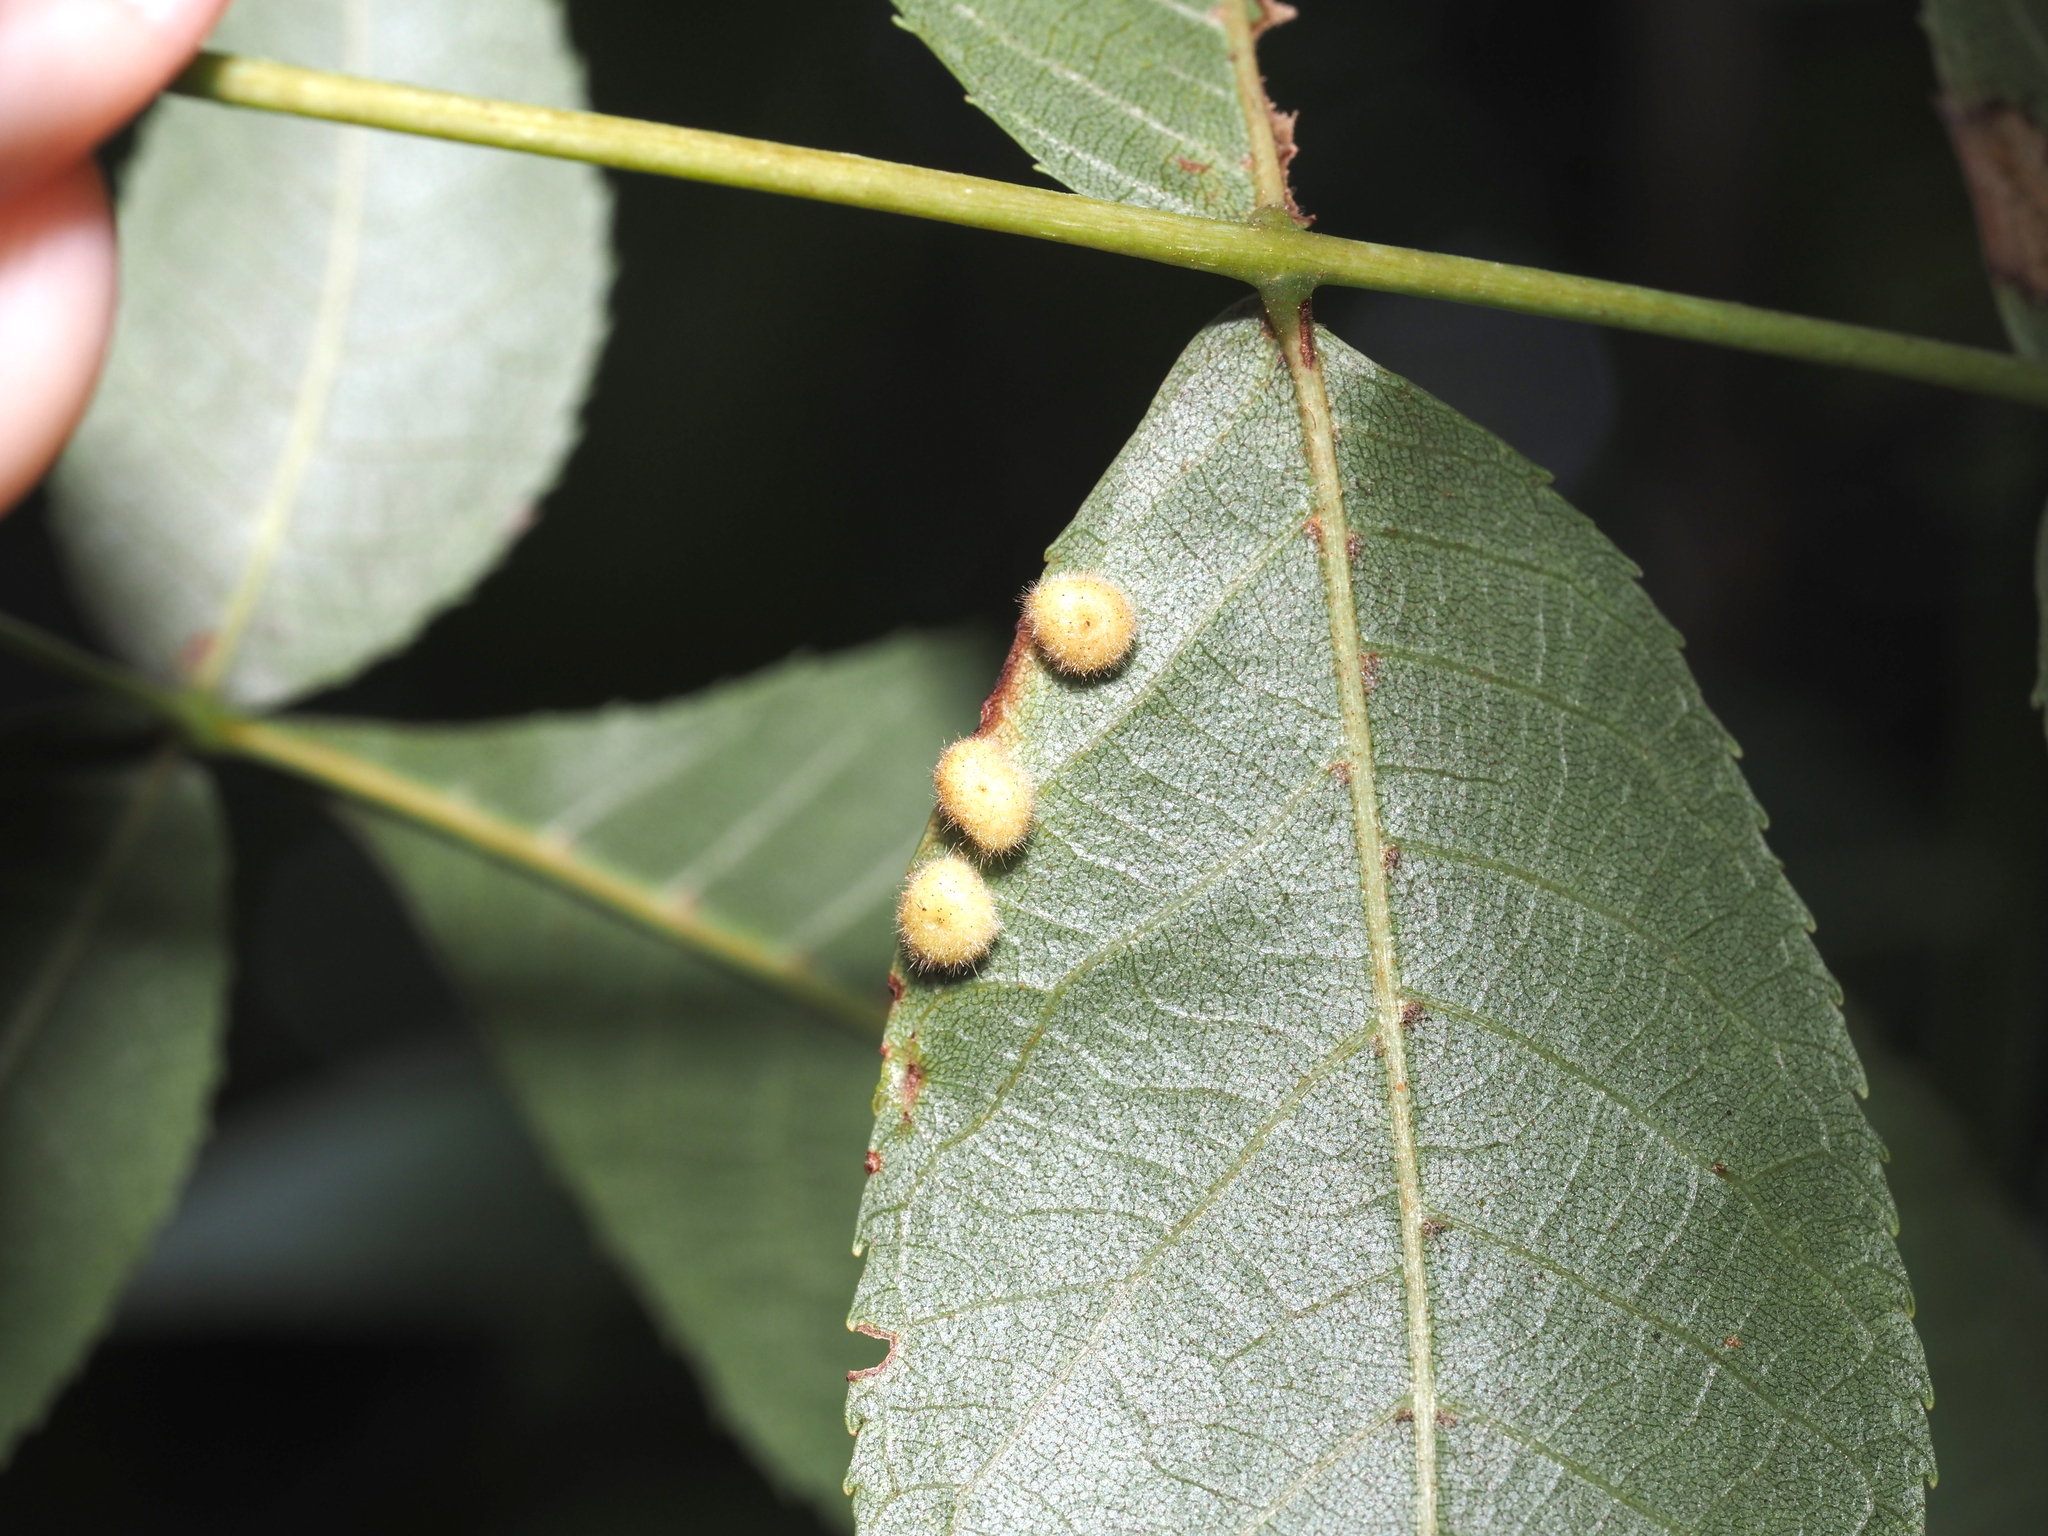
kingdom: Animalia
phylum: Arthropoda
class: Insecta
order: Diptera
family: Cecidomyiidae
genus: Caryomyia
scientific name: Caryomyia thompsoni
